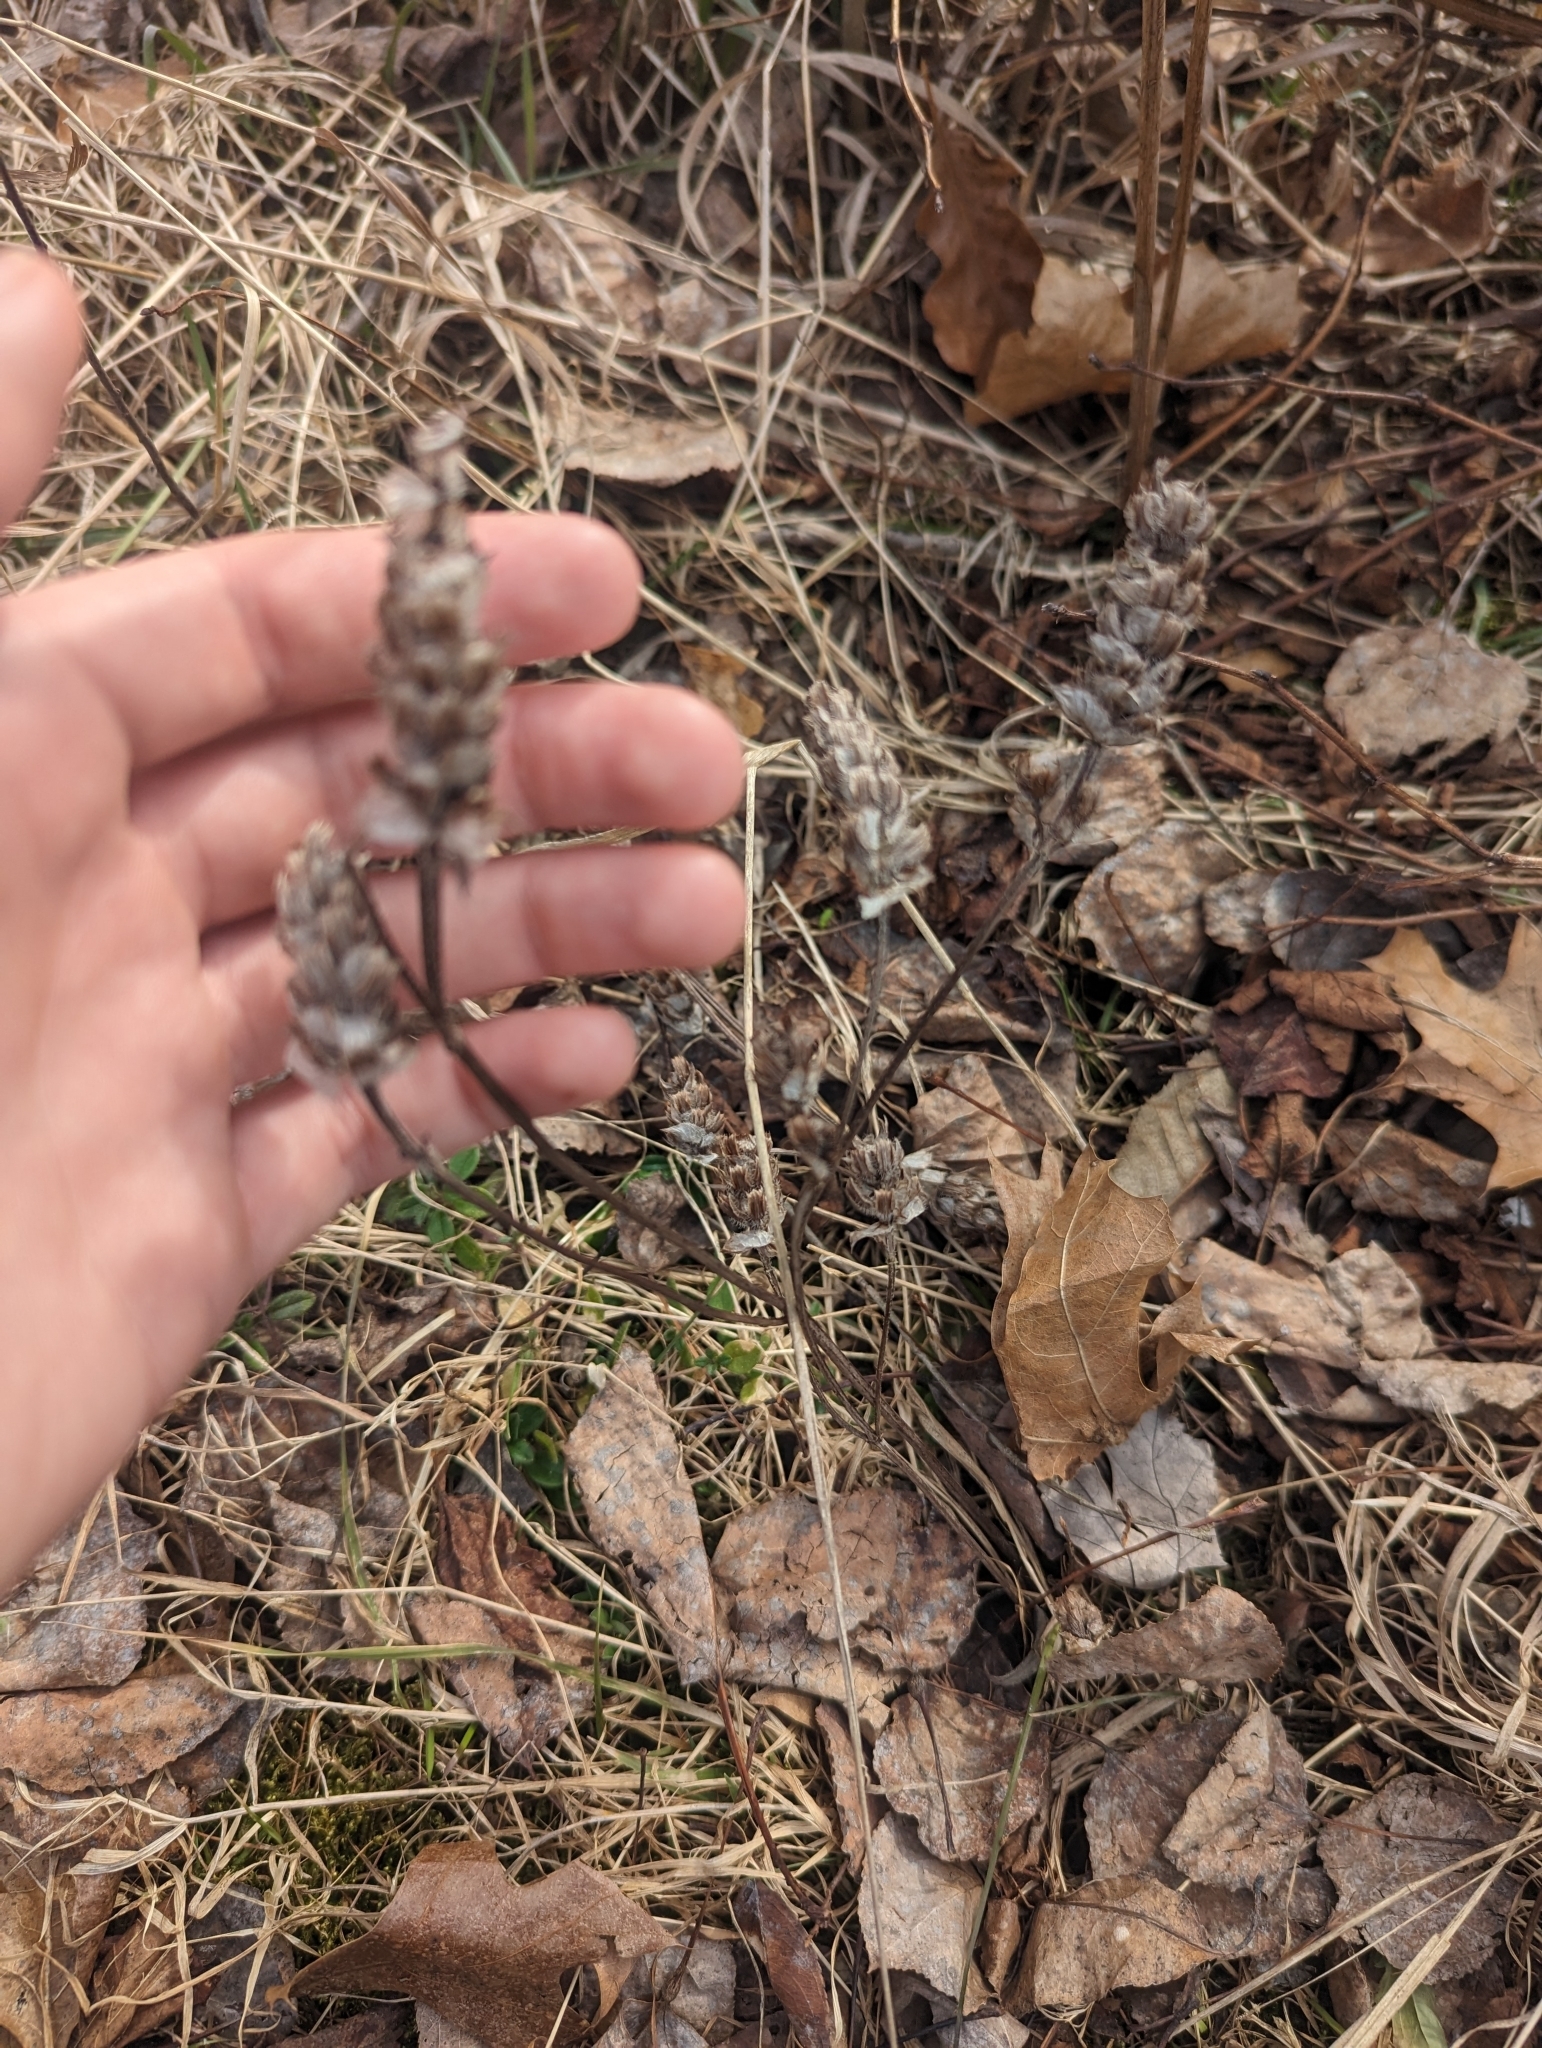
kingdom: Plantae
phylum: Tracheophyta
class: Magnoliopsida
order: Lamiales
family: Lamiaceae
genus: Prunella
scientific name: Prunella vulgaris
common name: Heal-all
